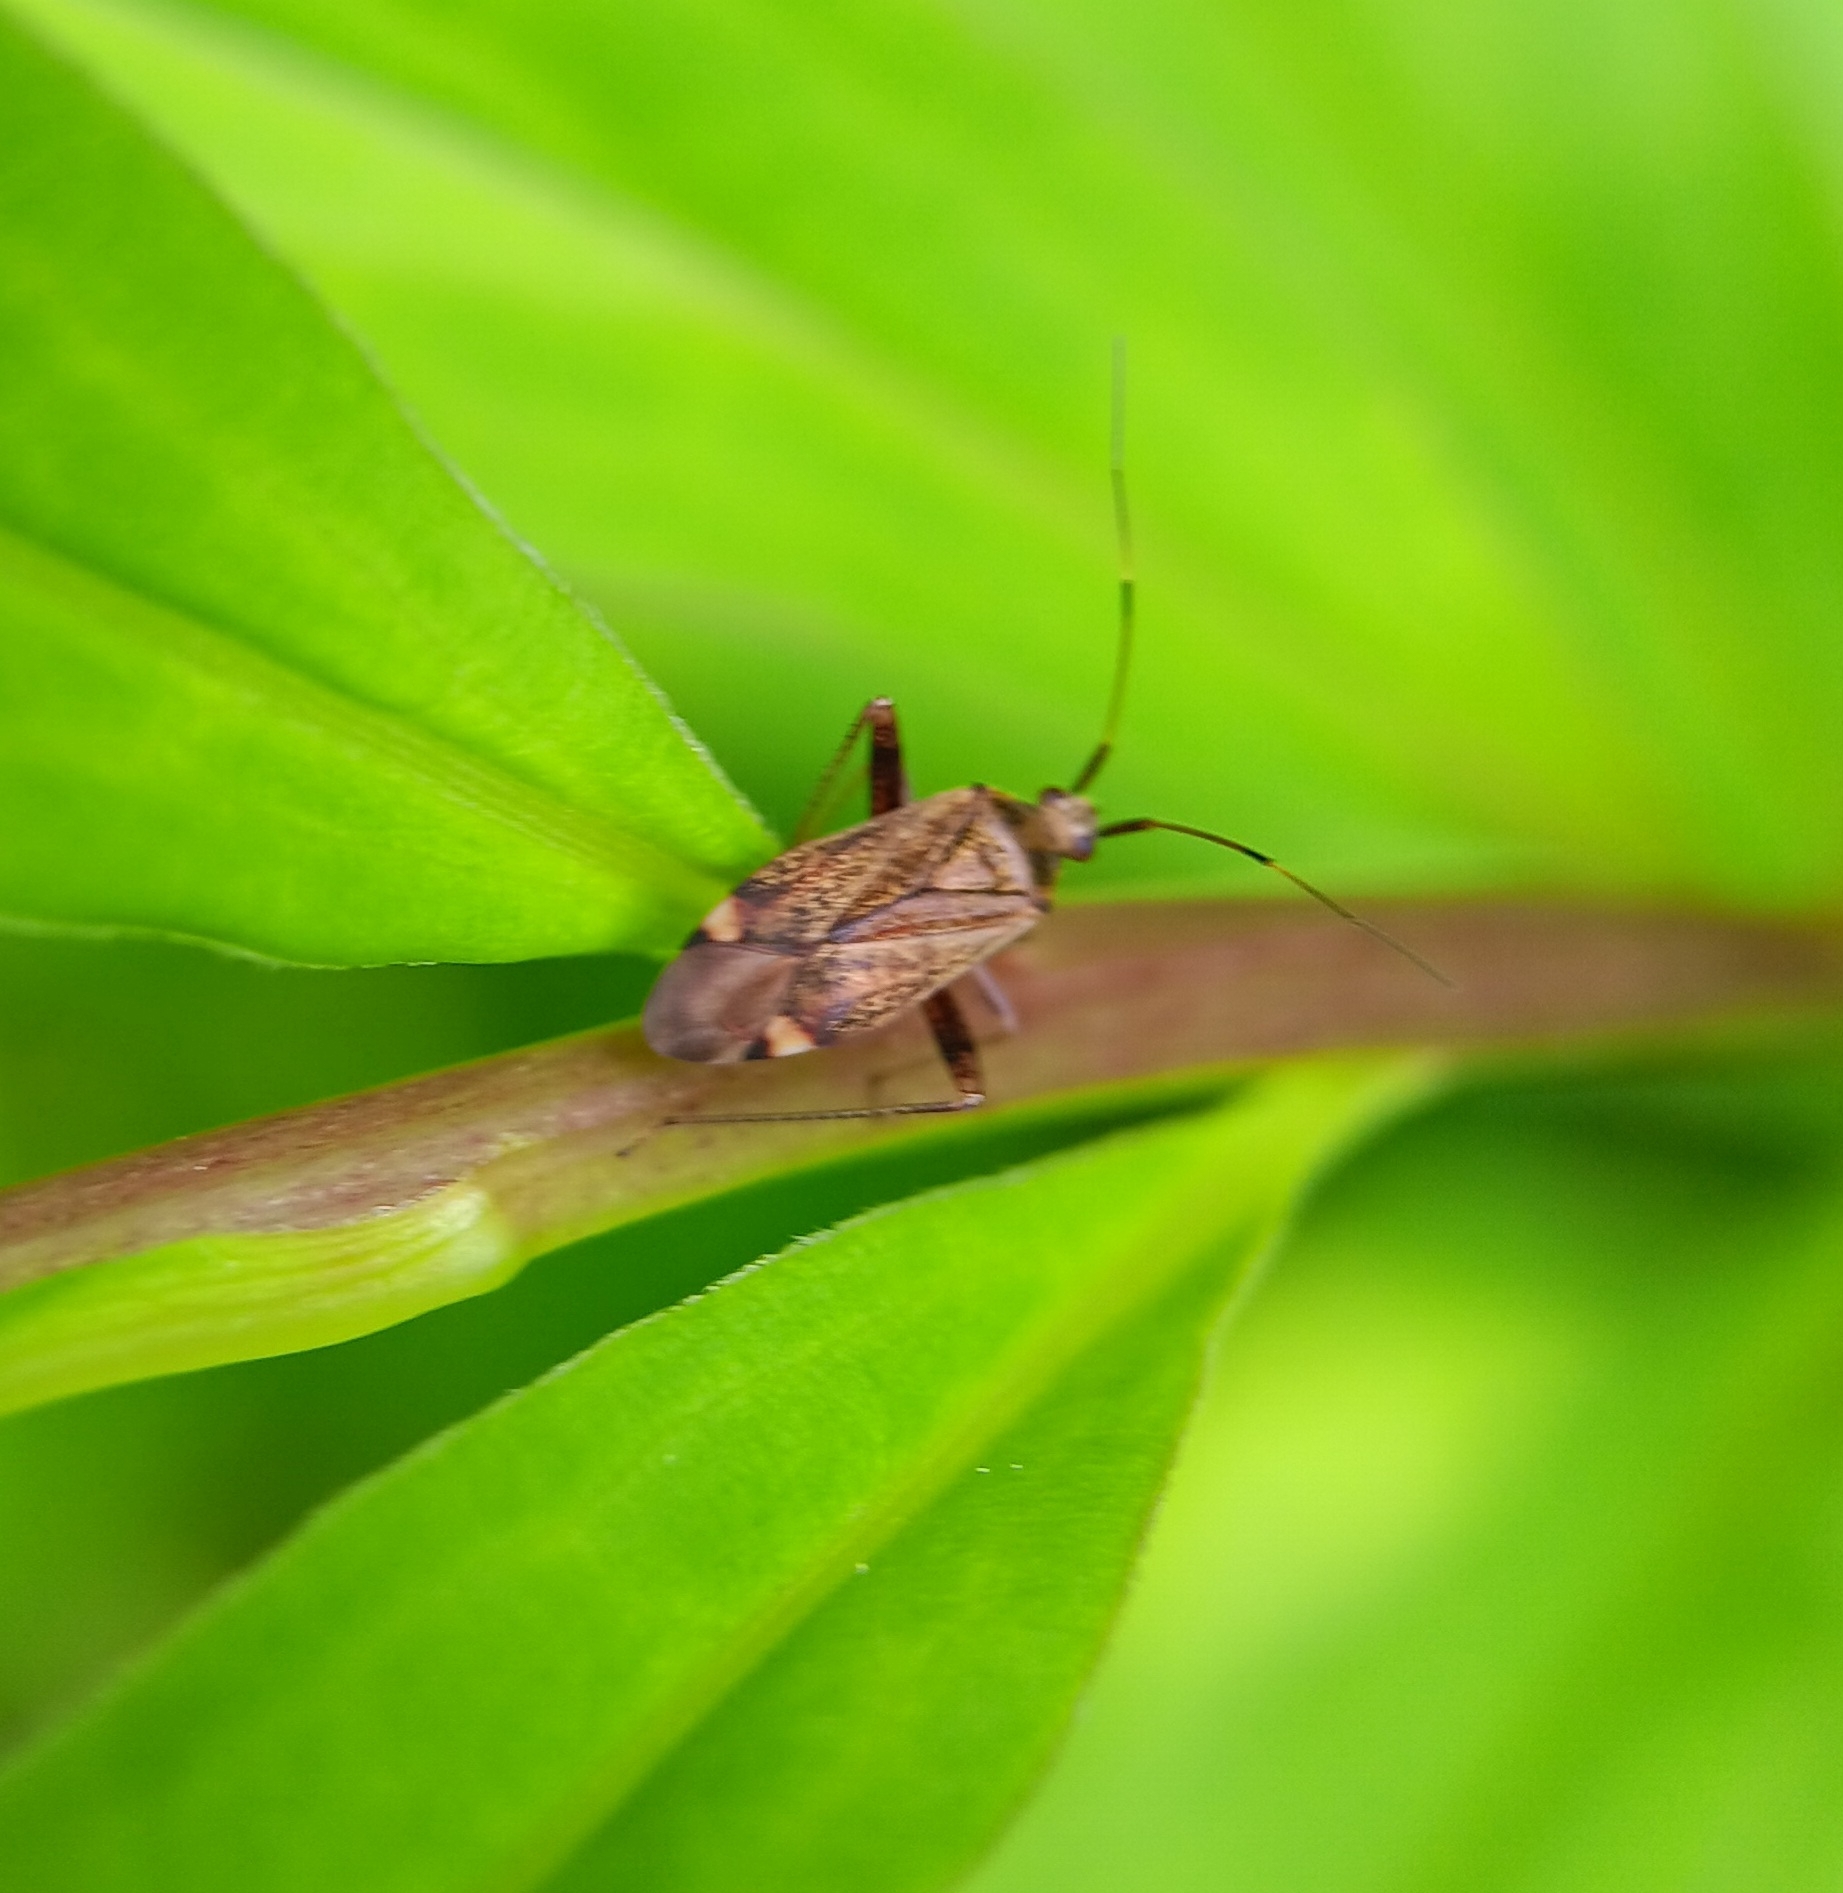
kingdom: Animalia
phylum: Arthropoda
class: Insecta
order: Hemiptera
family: Miridae
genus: Closterotomus
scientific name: Closterotomus fulvomaculatus
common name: Spotted plant bug
